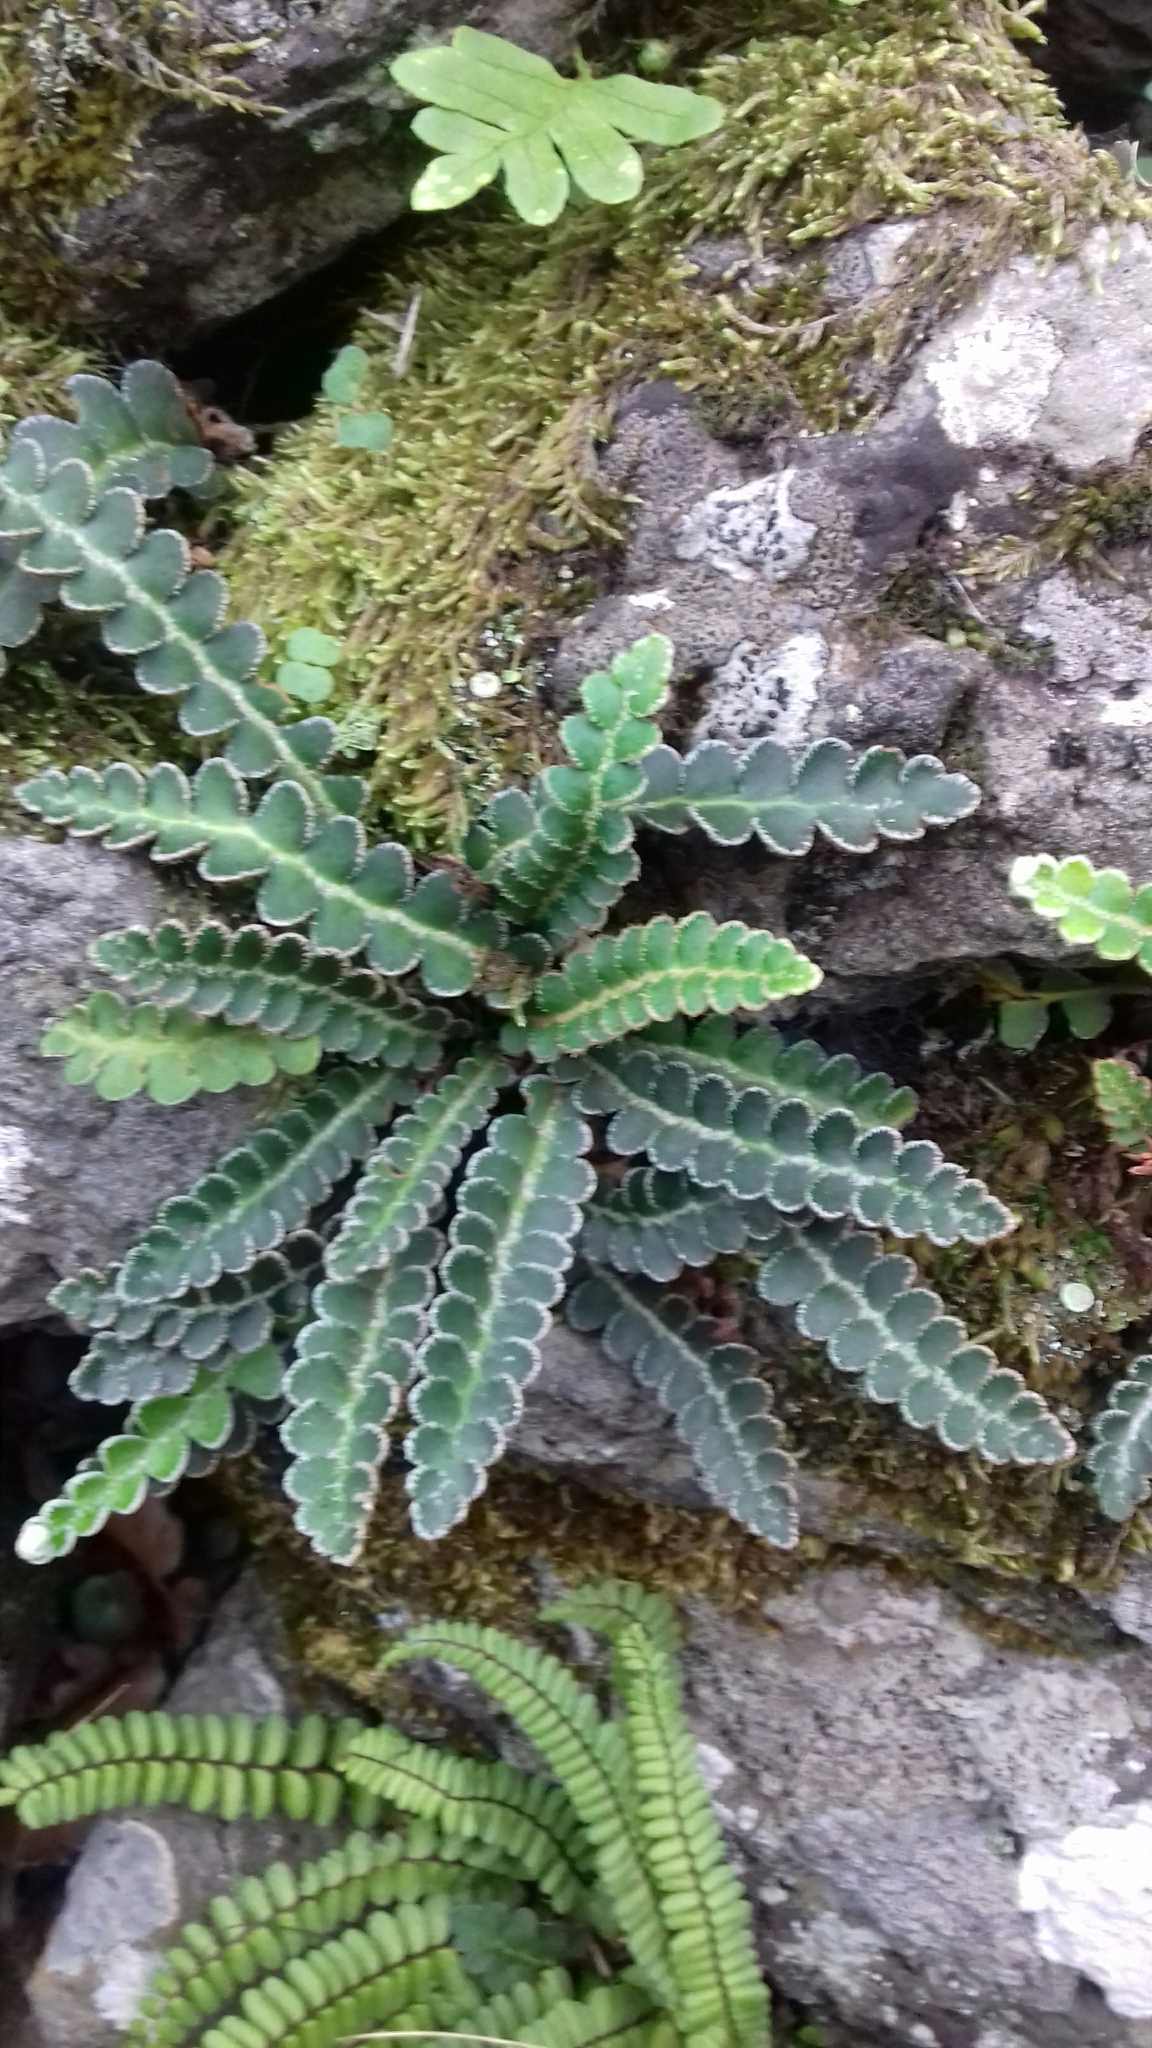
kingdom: Plantae
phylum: Tracheophyta
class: Polypodiopsida
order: Polypodiales
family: Aspleniaceae
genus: Asplenium
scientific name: Asplenium ceterach
